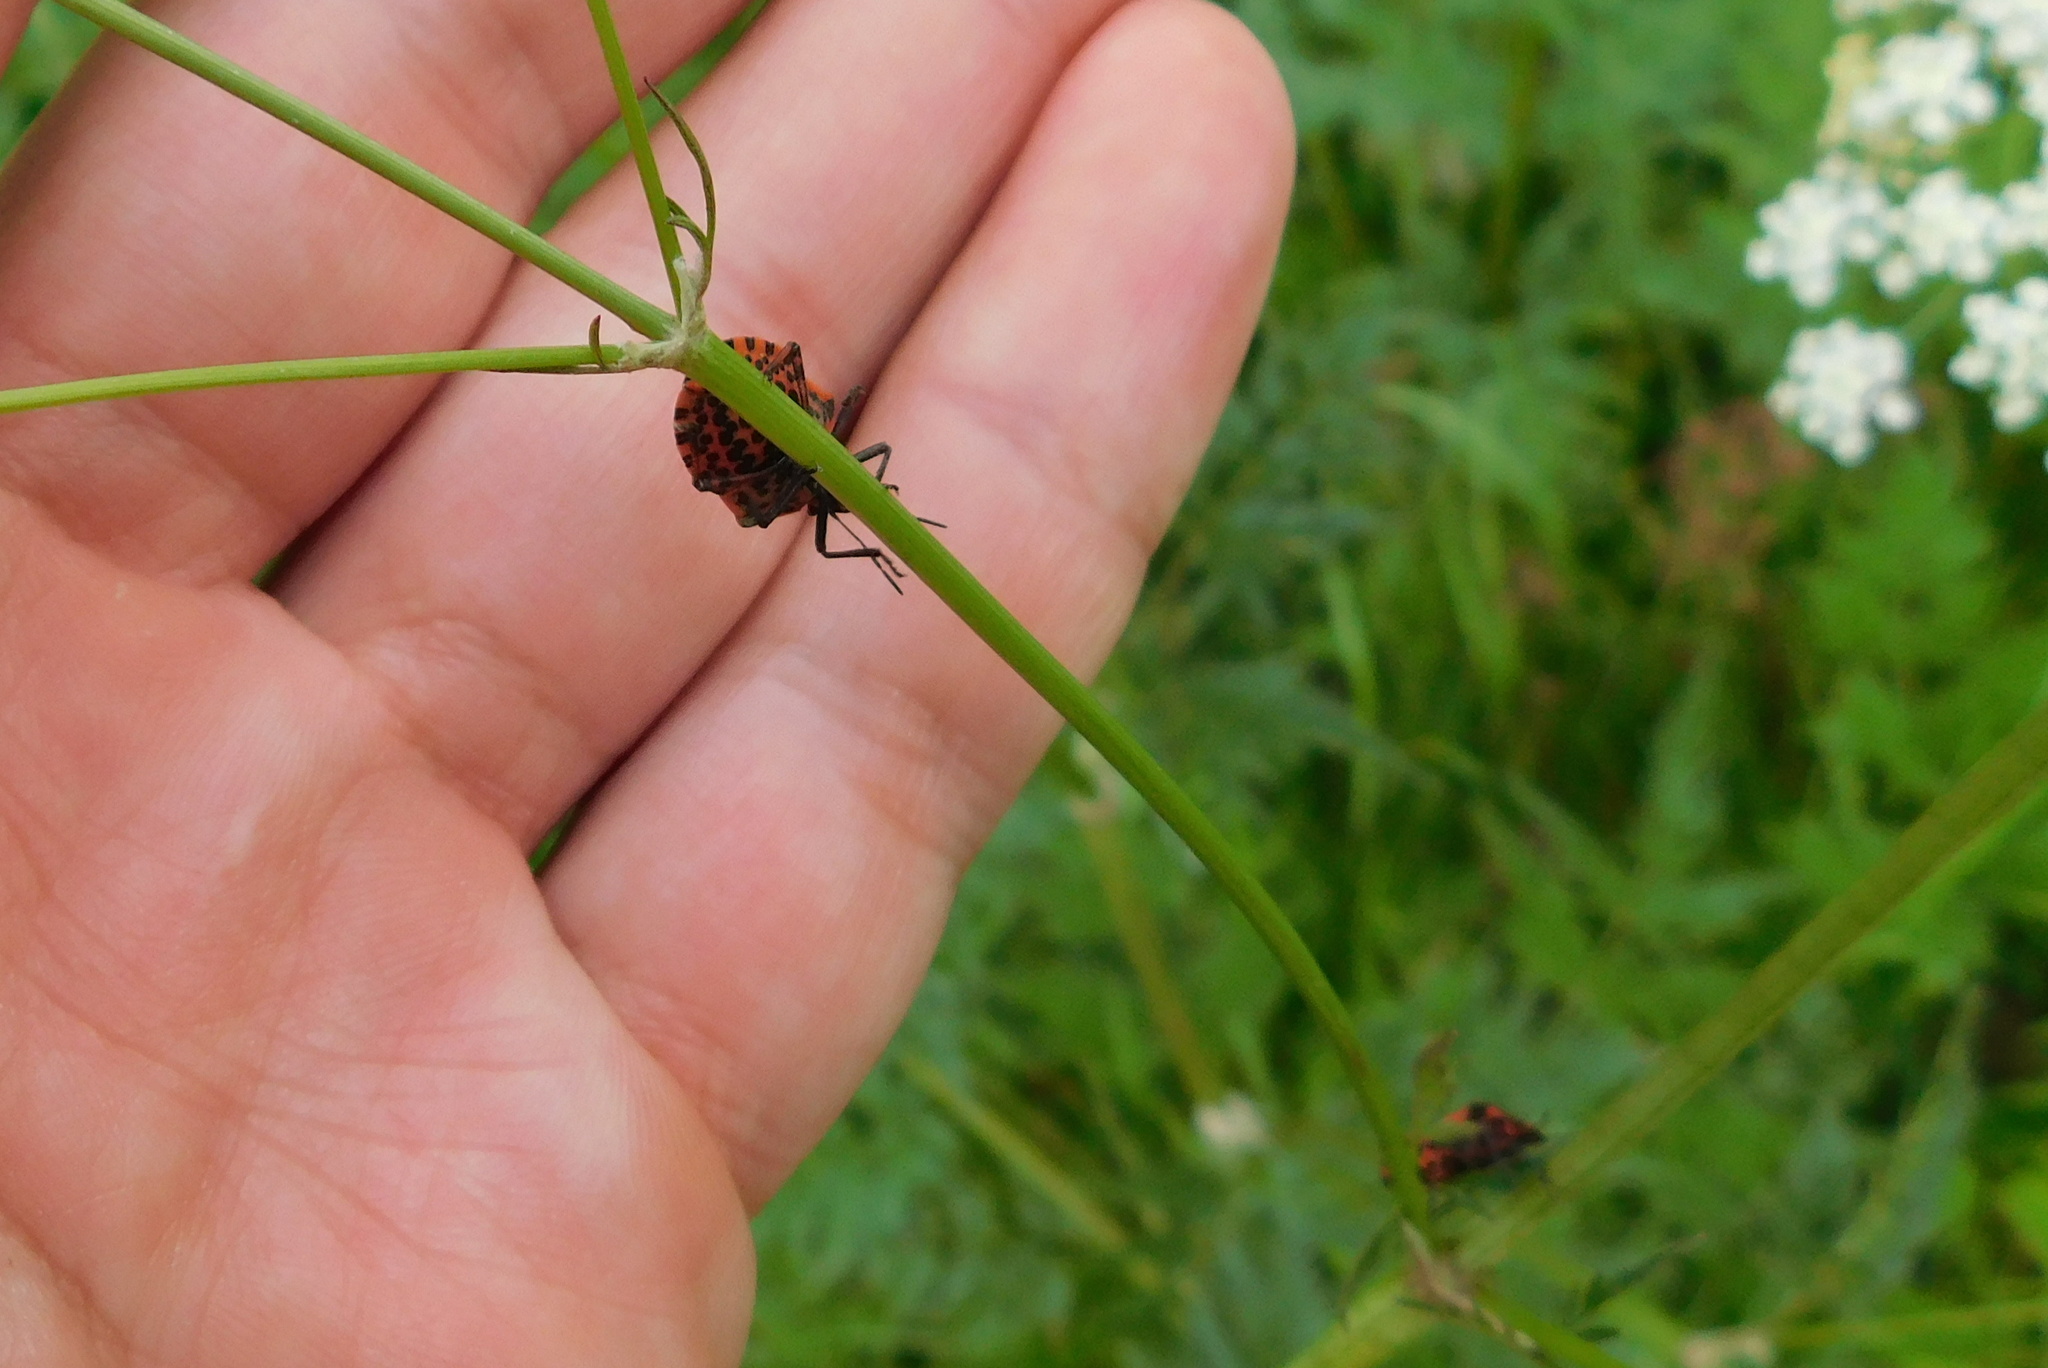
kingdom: Animalia
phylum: Arthropoda
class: Insecta
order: Hemiptera
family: Pentatomidae
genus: Graphosoma
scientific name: Graphosoma italicum
